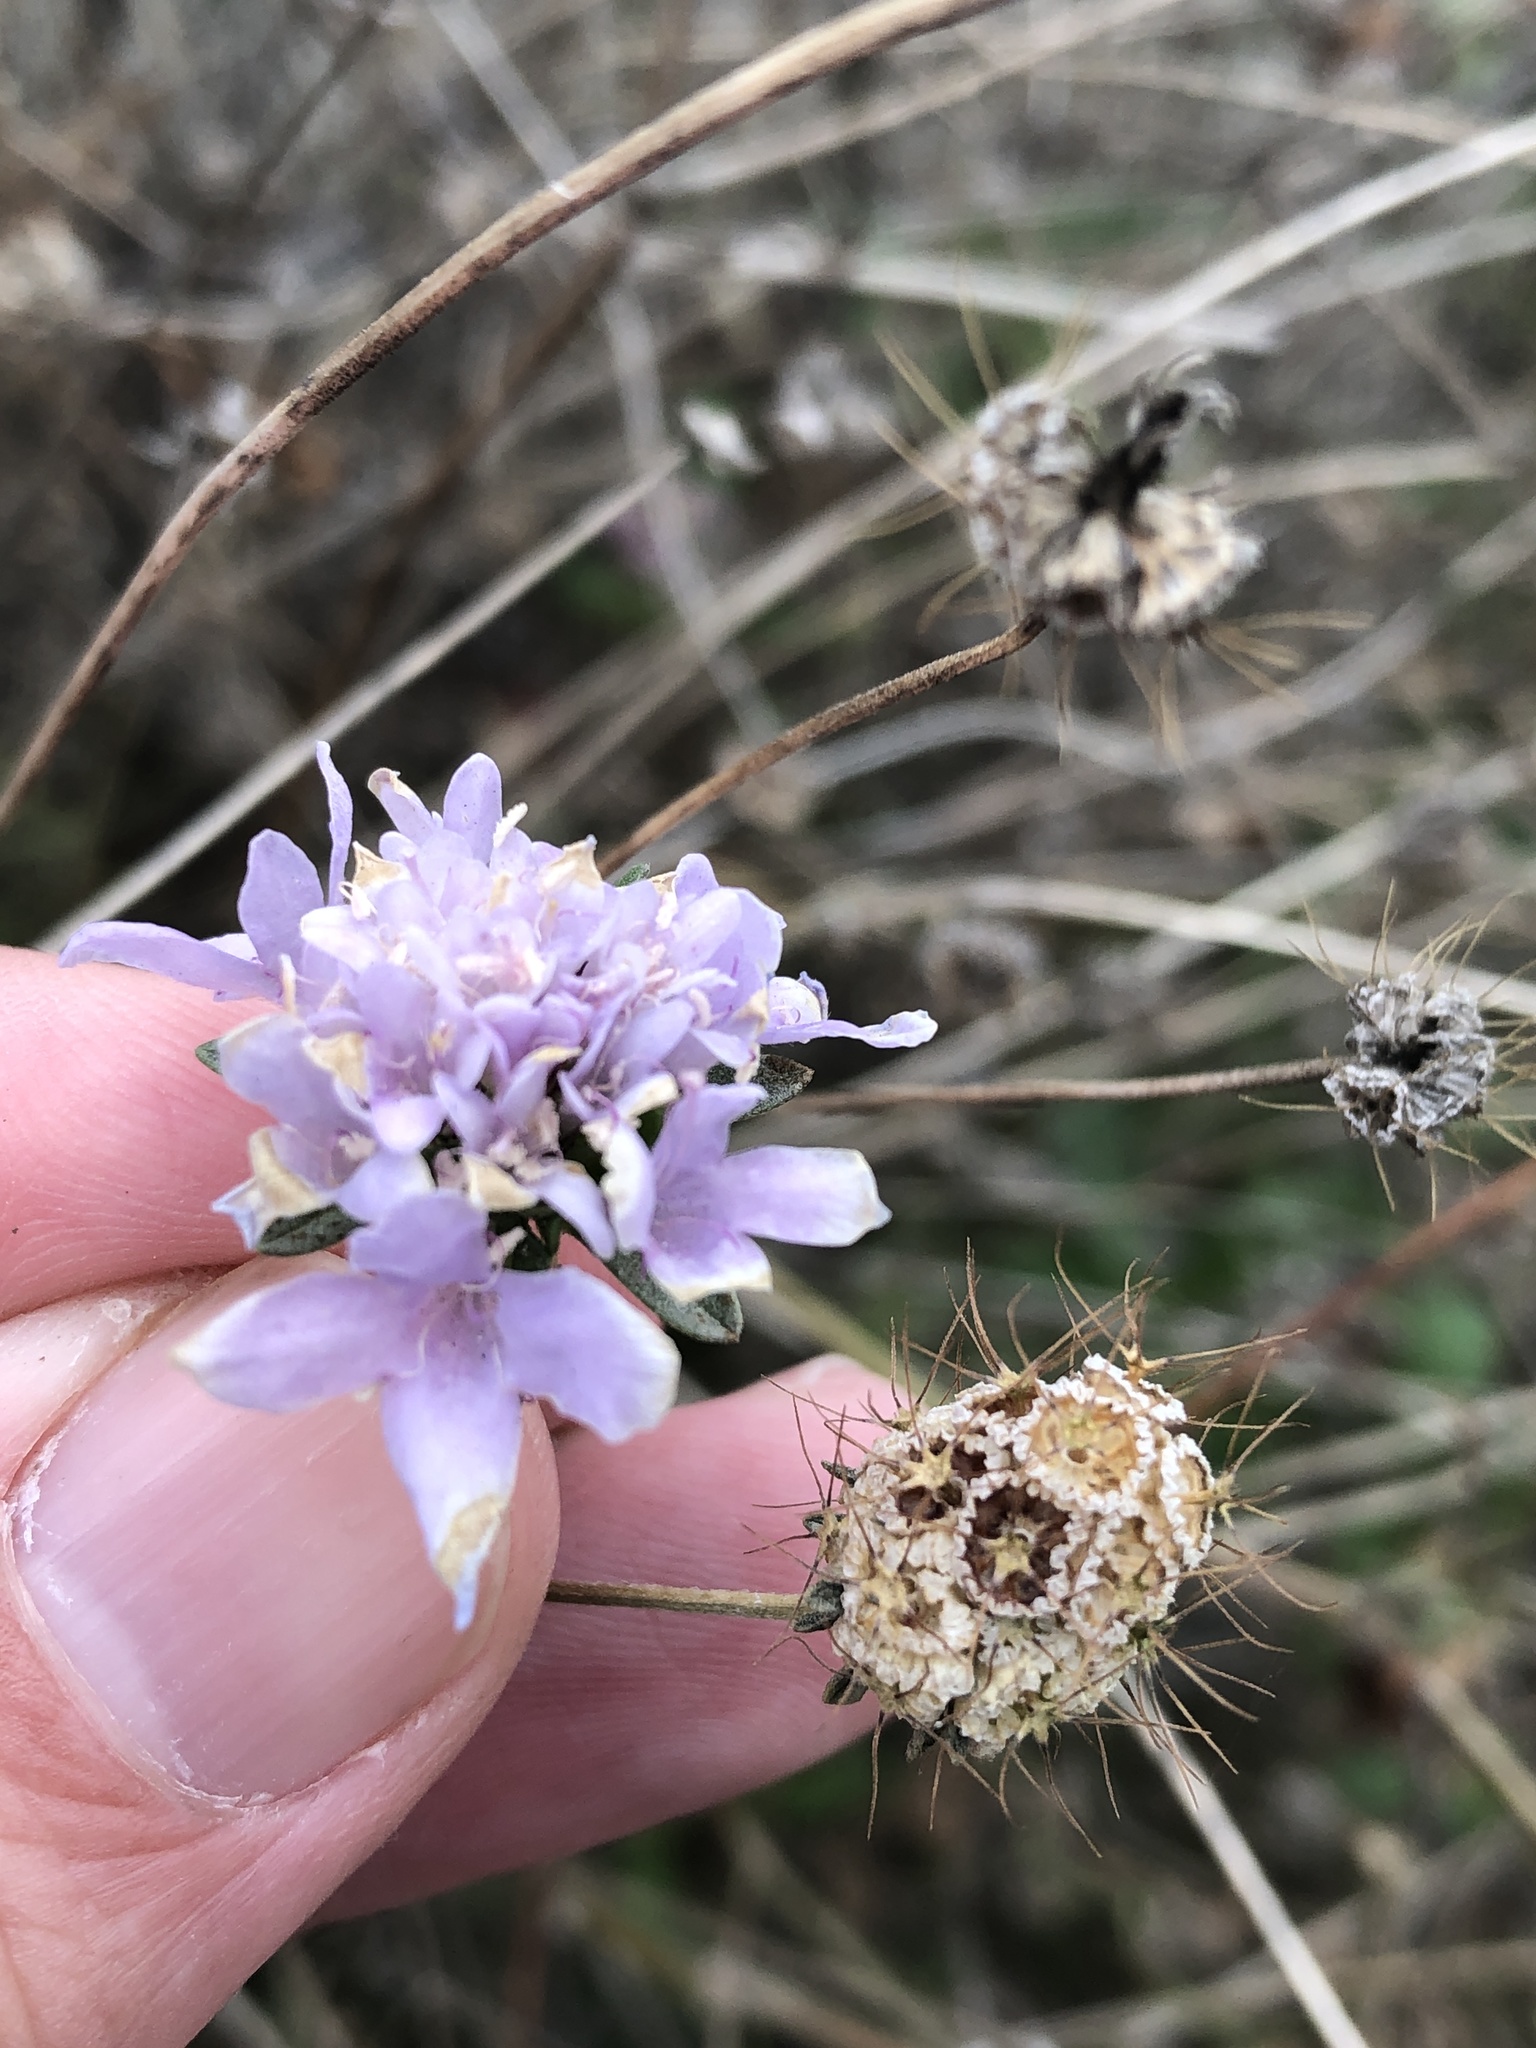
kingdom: Plantae
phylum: Tracheophyta
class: Magnoliopsida
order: Dipsacales
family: Caprifoliaceae
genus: Sixalix
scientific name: Sixalix atropurpurea
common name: Sweet scabious
